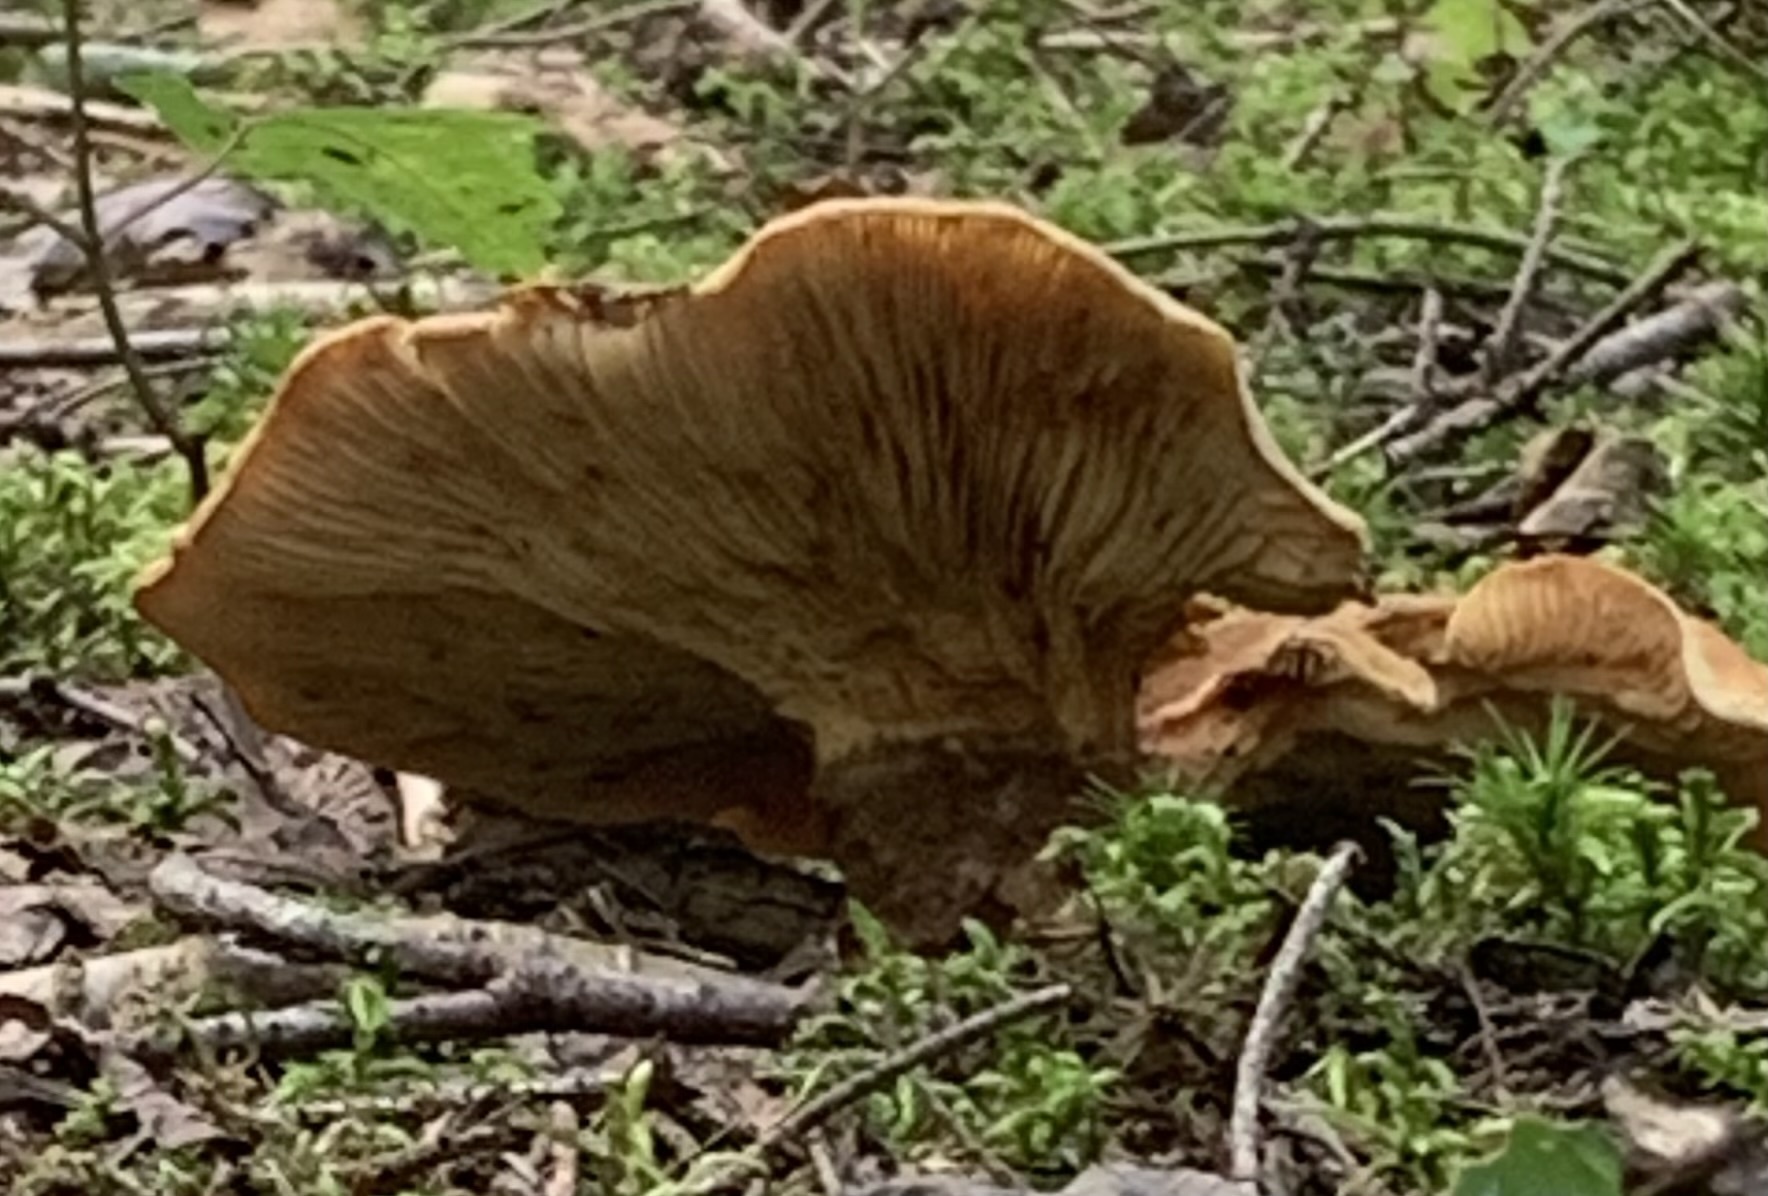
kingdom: Fungi
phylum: Basidiomycota
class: Agaricomycetes
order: Boletales
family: Tapinellaceae
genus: Tapinella
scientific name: Tapinella atrotomentosa
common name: Velvet rollrim
